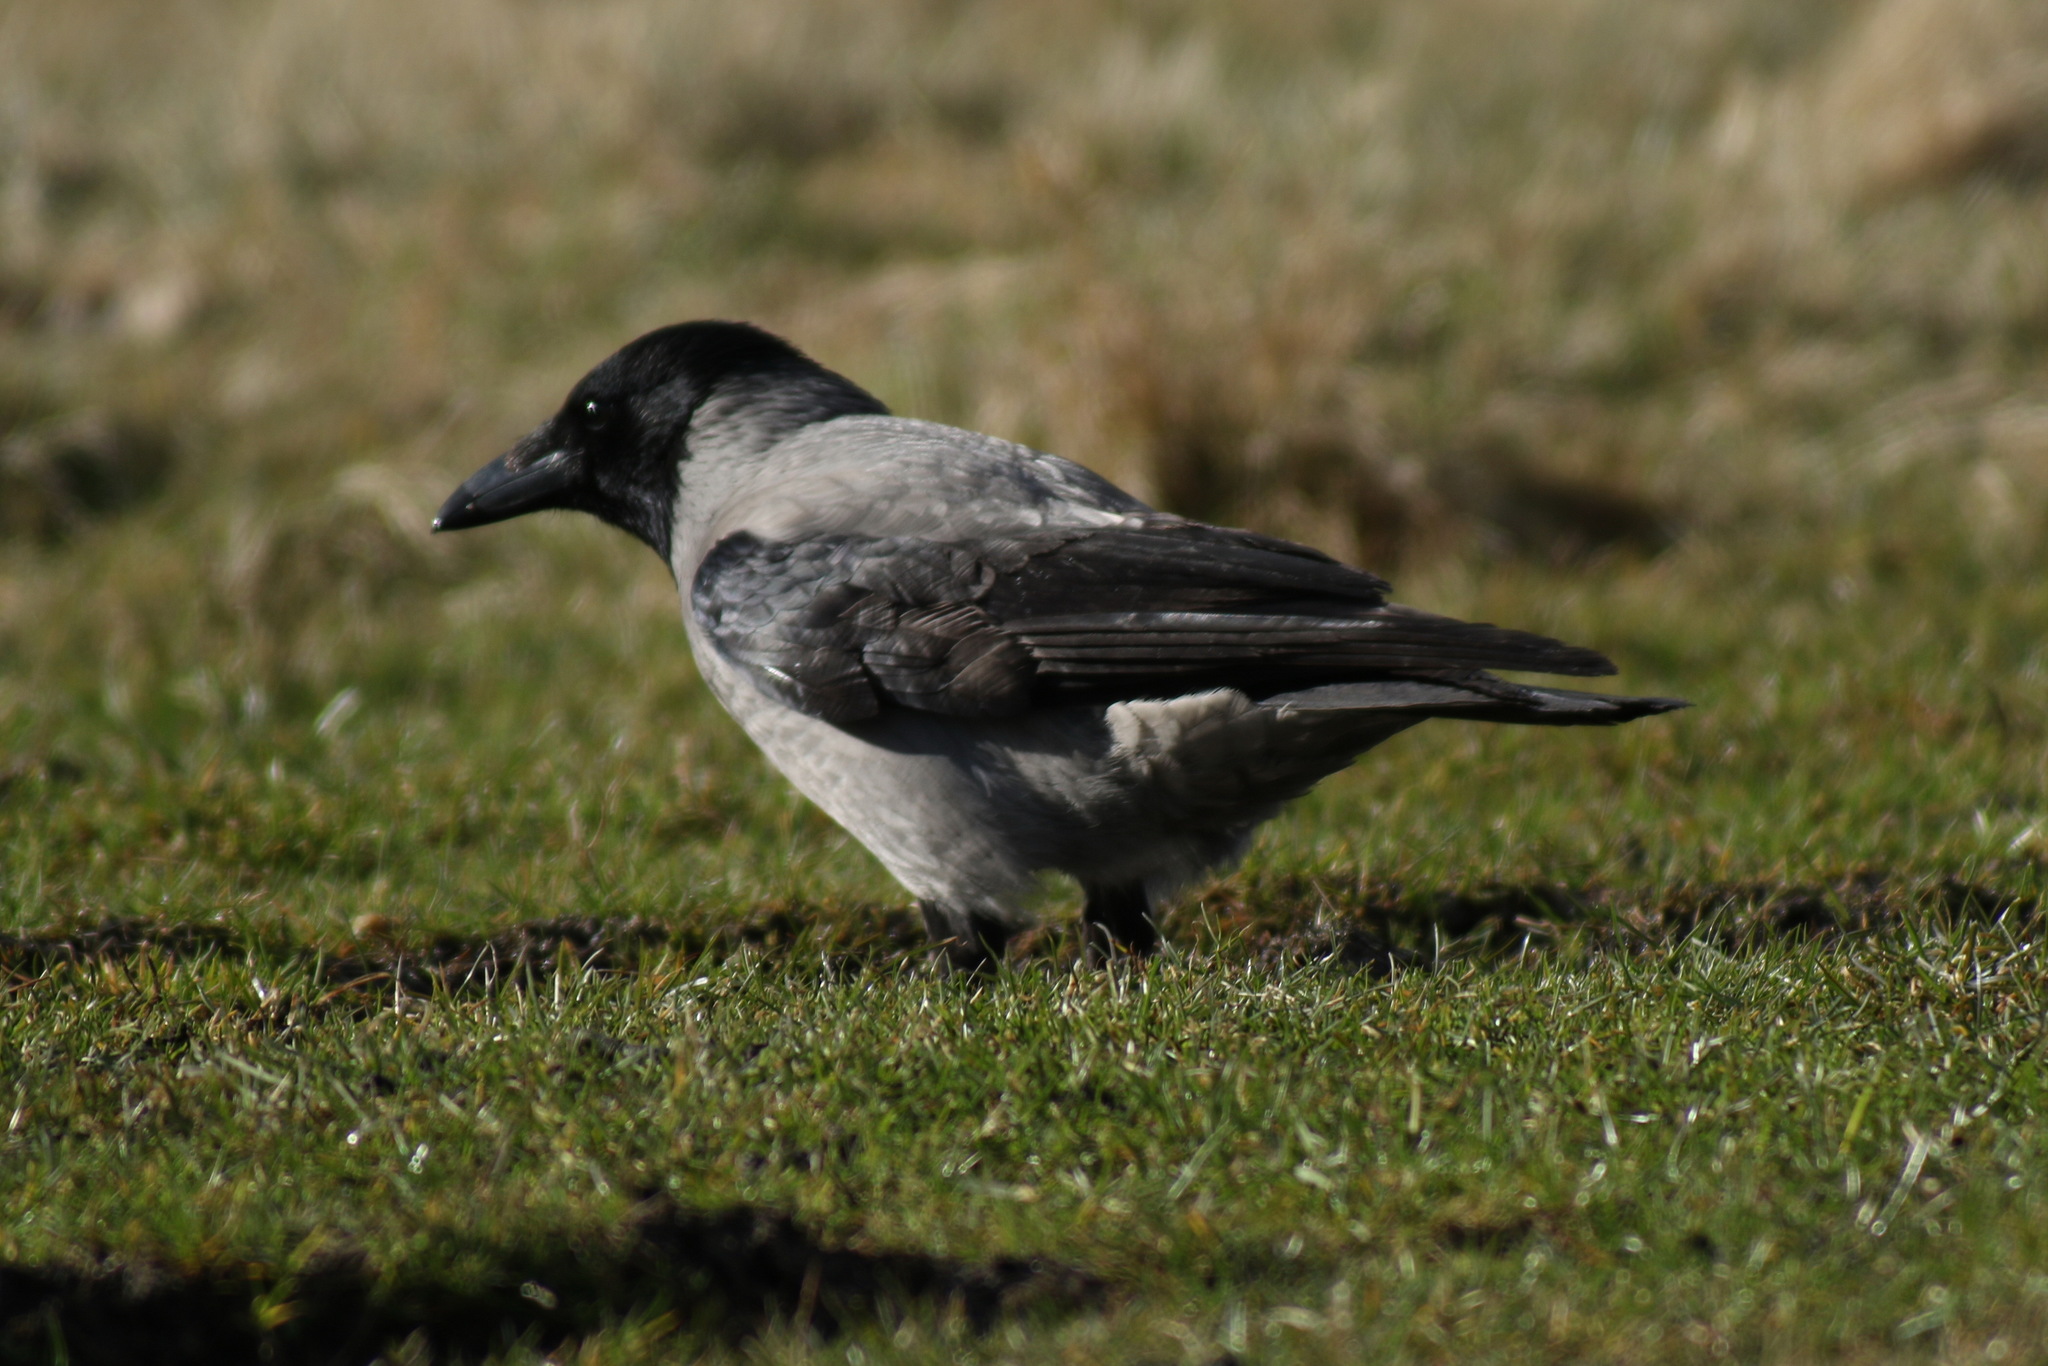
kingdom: Animalia
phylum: Chordata
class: Aves
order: Passeriformes
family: Corvidae
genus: Corvus
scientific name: Corvus cornix
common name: Hooded crow
